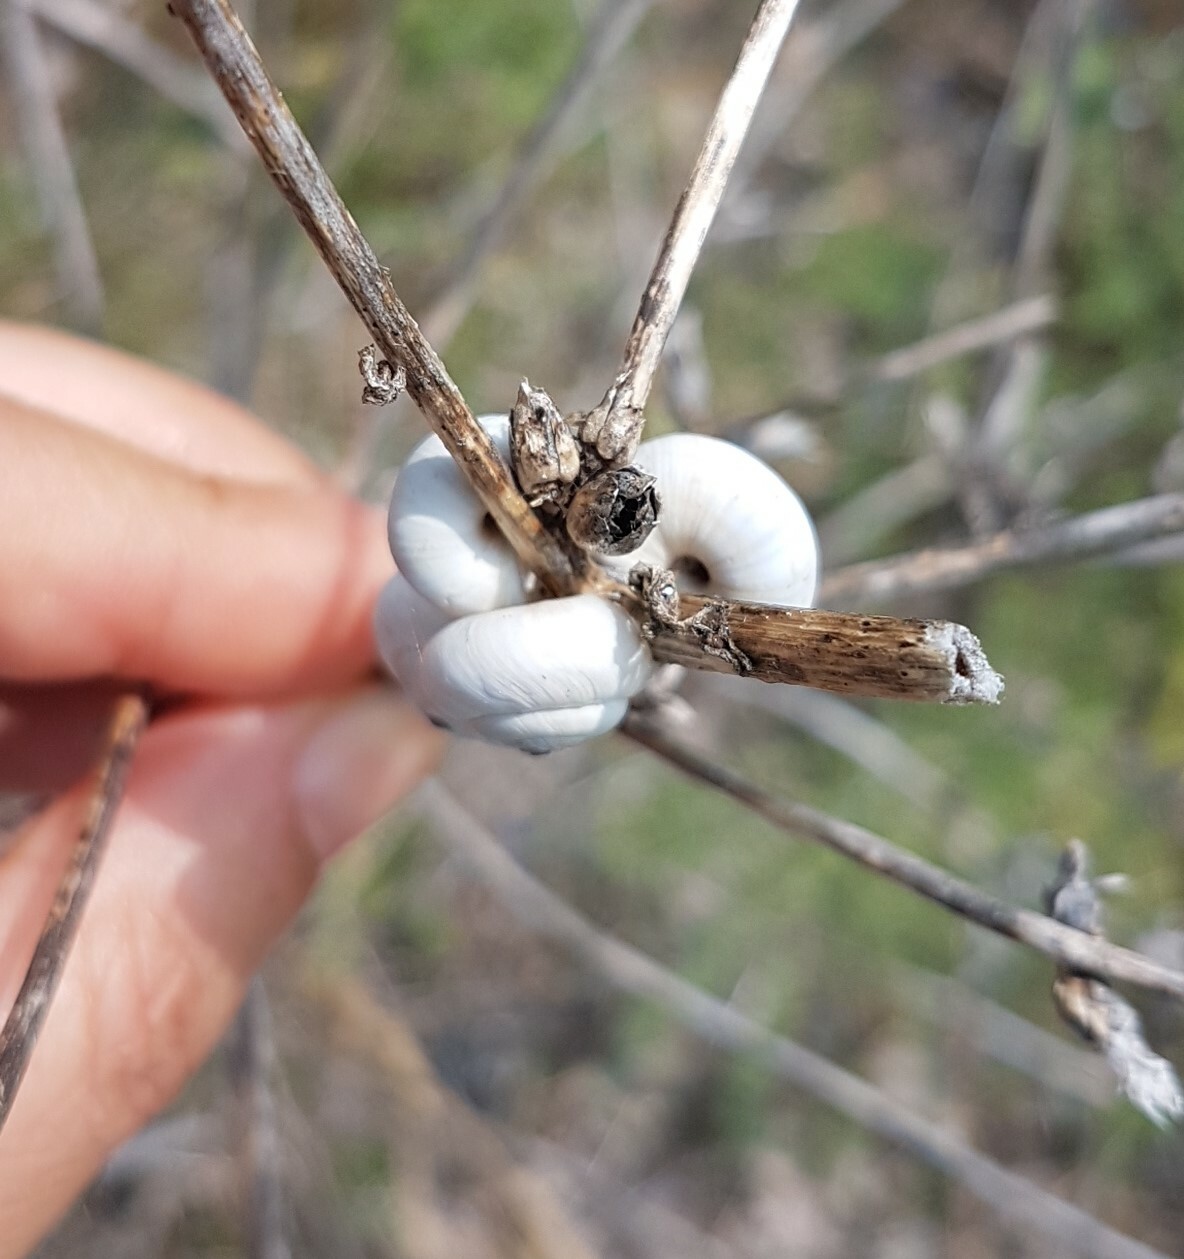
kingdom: Animalia
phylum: Mollusca
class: Gastropoda
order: Stylommatophora
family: Geomitridae
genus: Xeropicta
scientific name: Xeropicta derbentina
